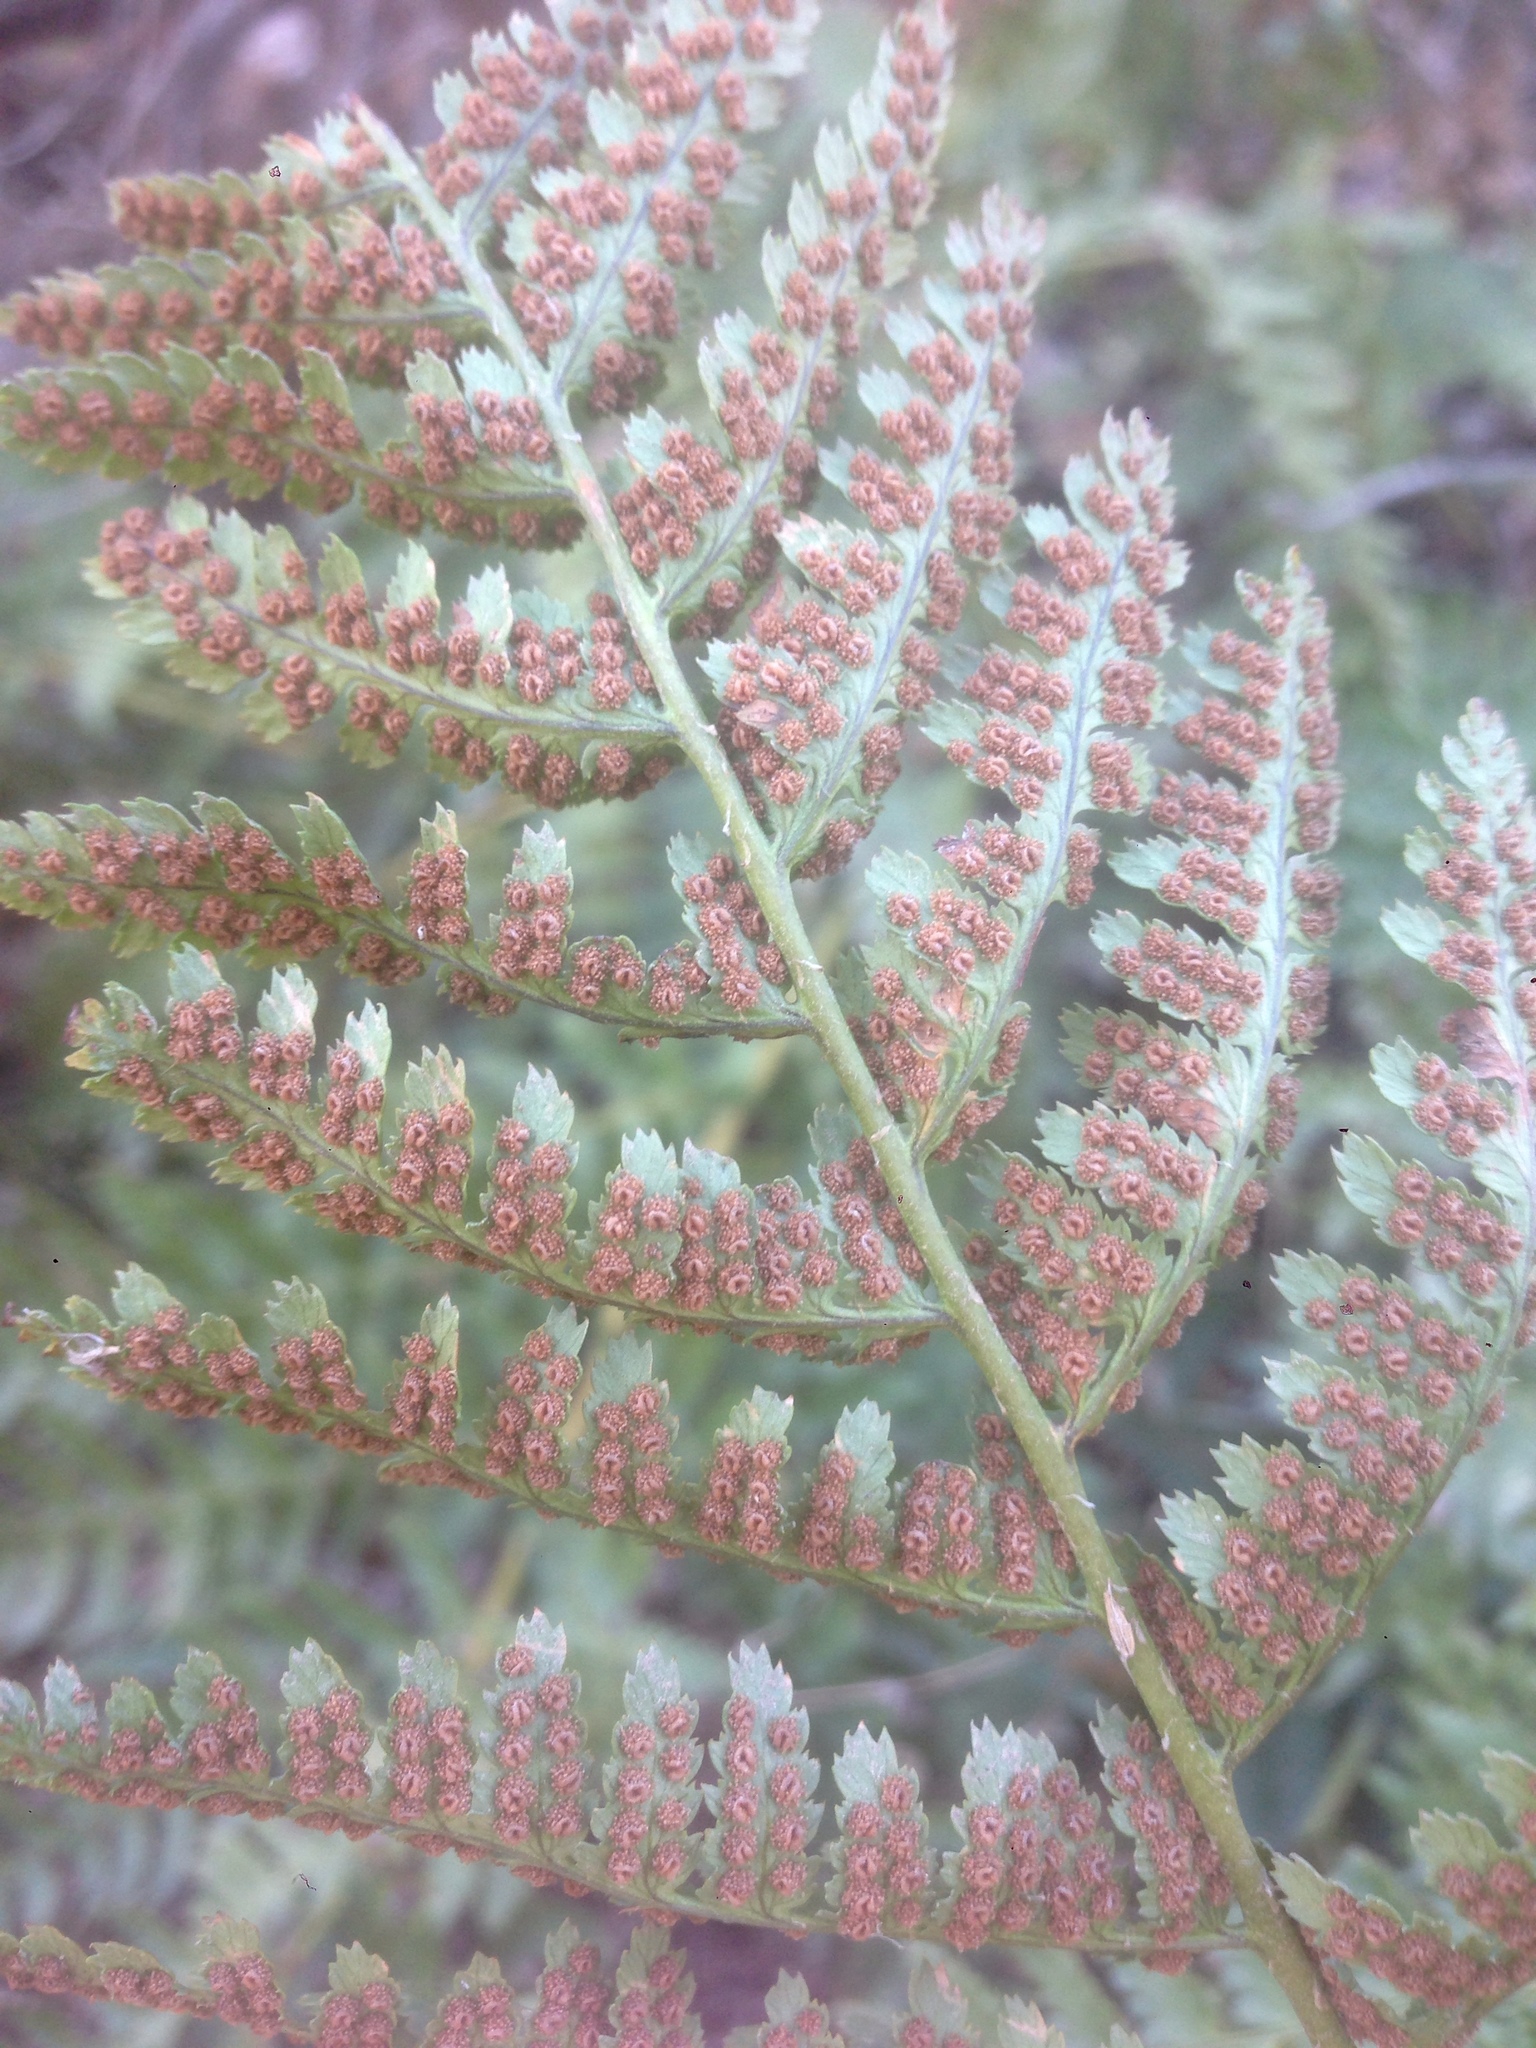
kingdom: Plantae
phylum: Tracheophyta
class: Polypodiopsida
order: Polypodiales
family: Dryopteridaceae
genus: Dryopteris
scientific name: Dryopteris arguta
